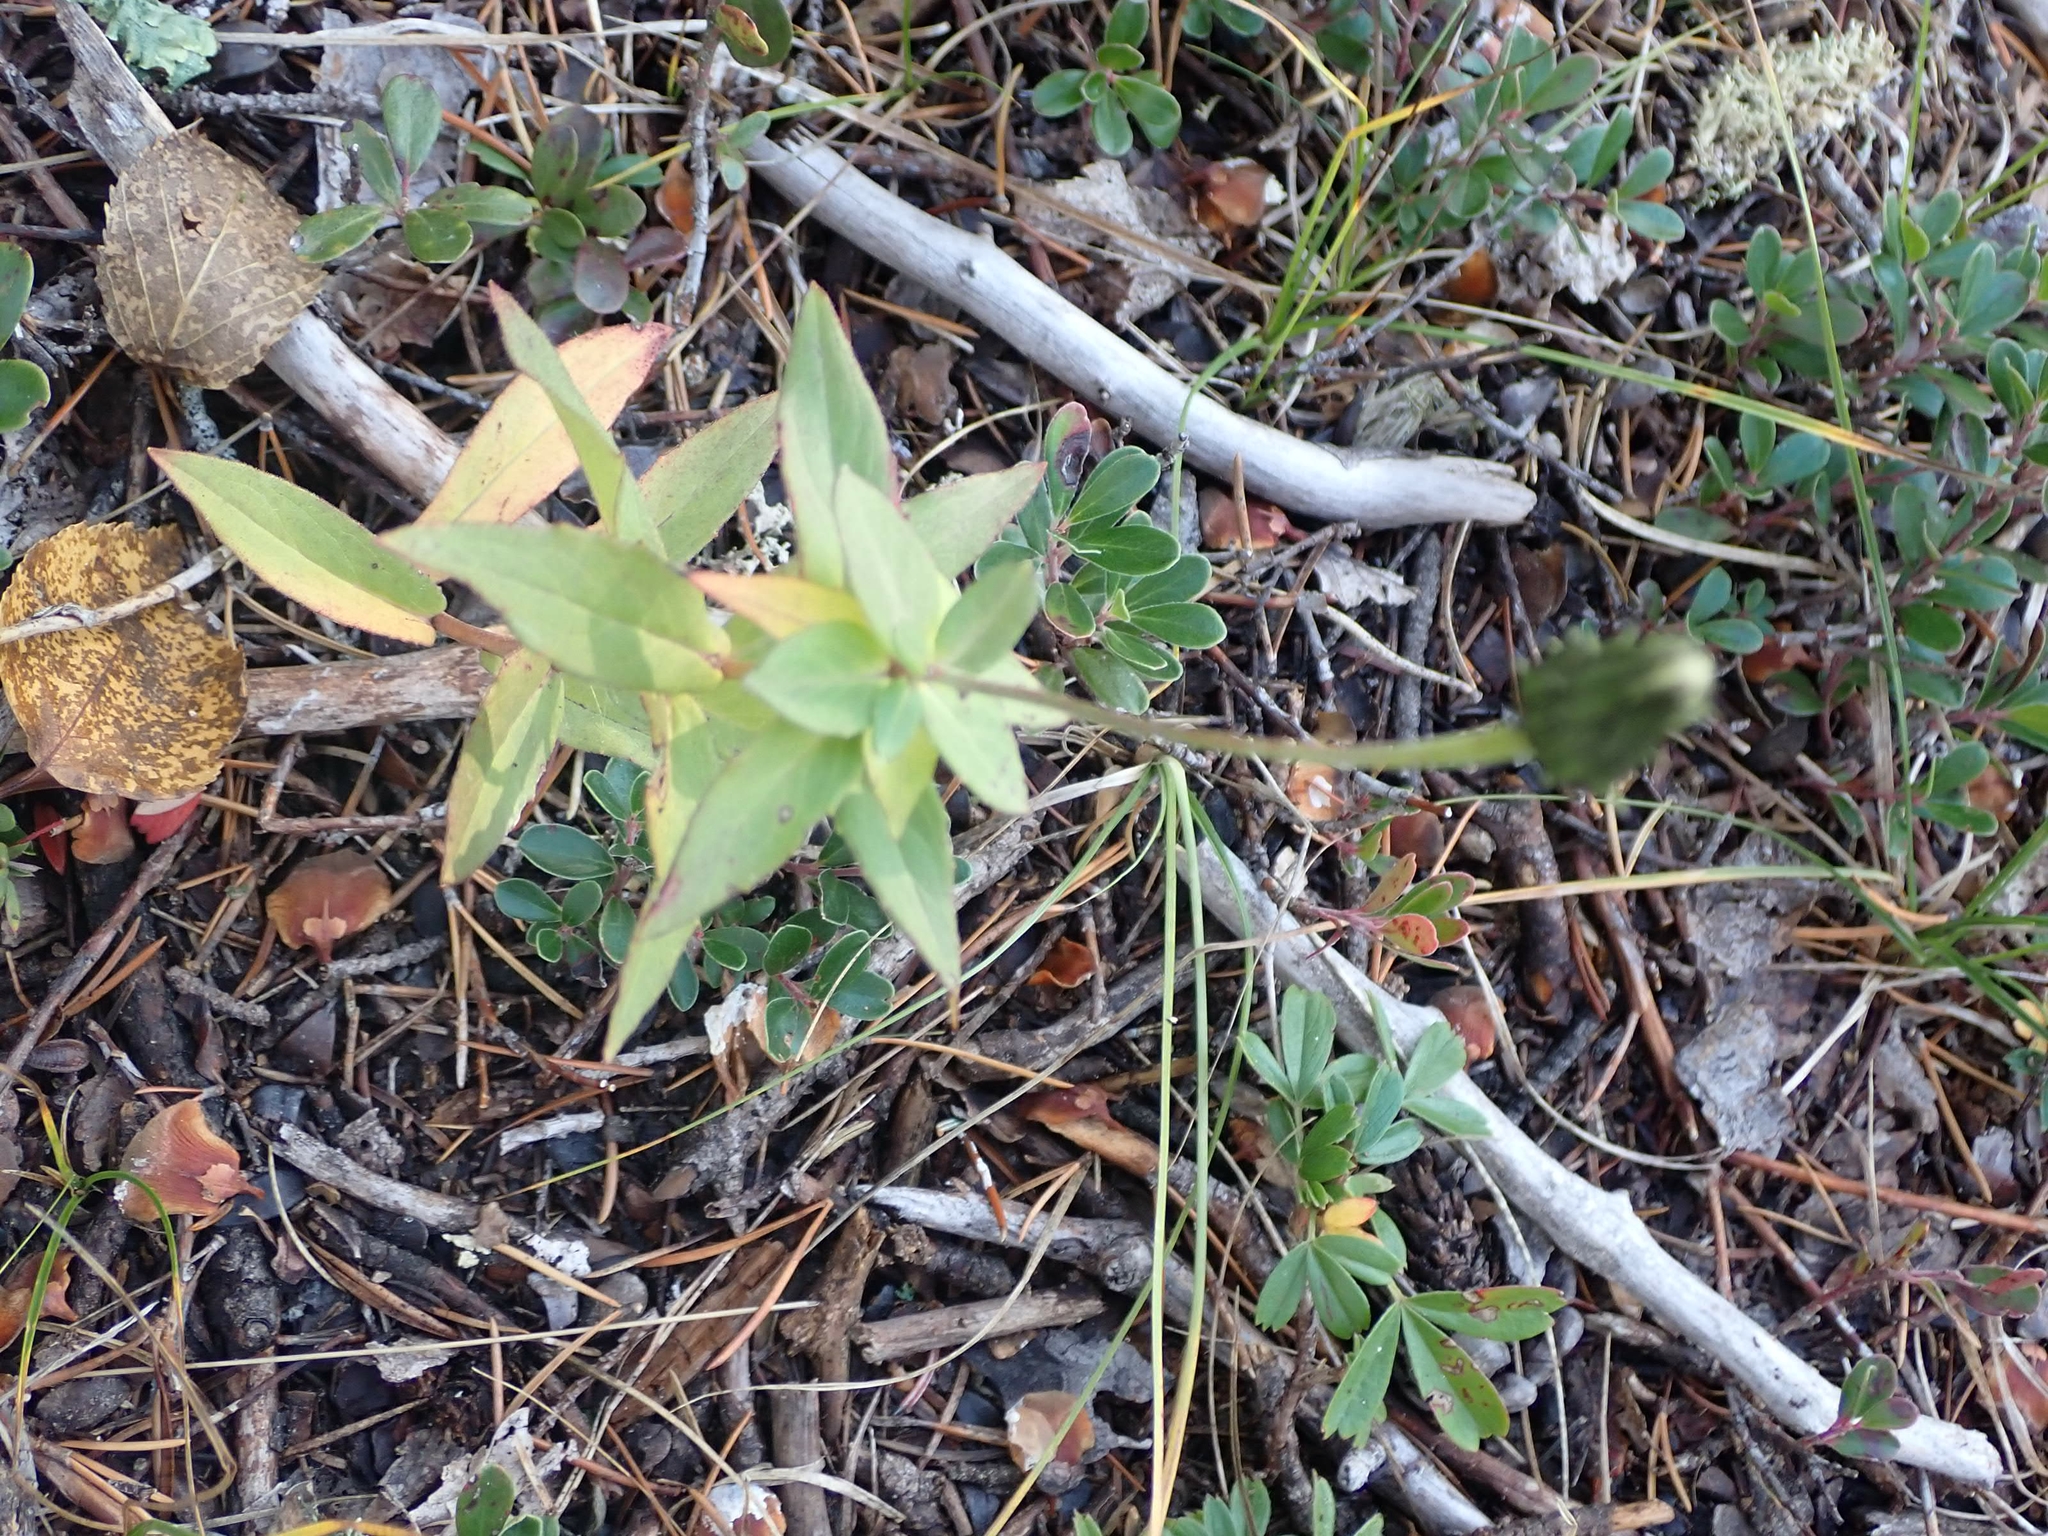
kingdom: Plantae
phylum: Tracheophyta
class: Magnoliopsida
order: Asterales
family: Asteraceae
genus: Hieracium
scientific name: Hieracium umbellatum
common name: Northern hawkweed
